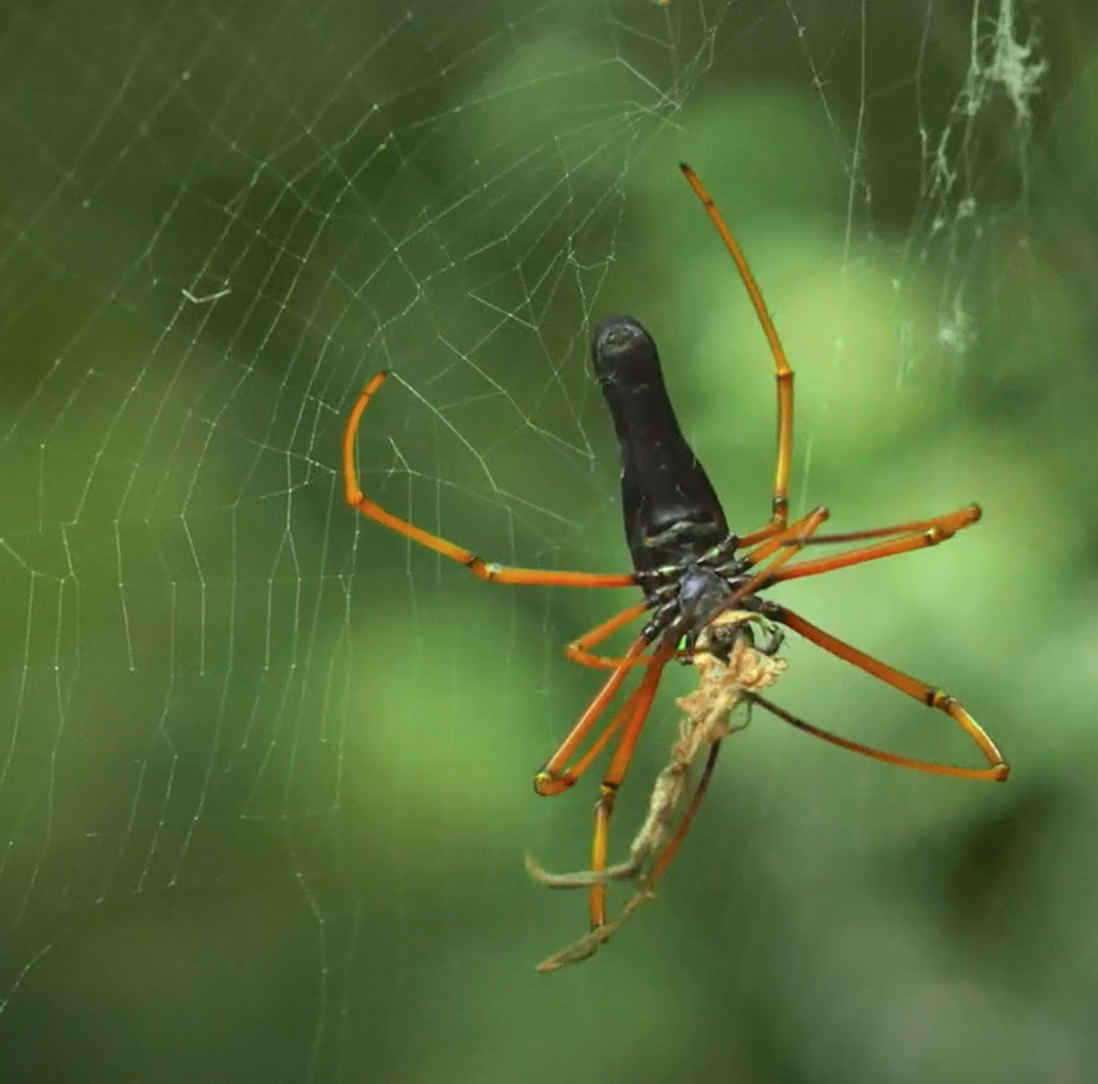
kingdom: Animalia
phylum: Arthropoda
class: Arachnida
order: Araneae
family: Araneidae
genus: Nephila
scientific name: Nephila kuhli
